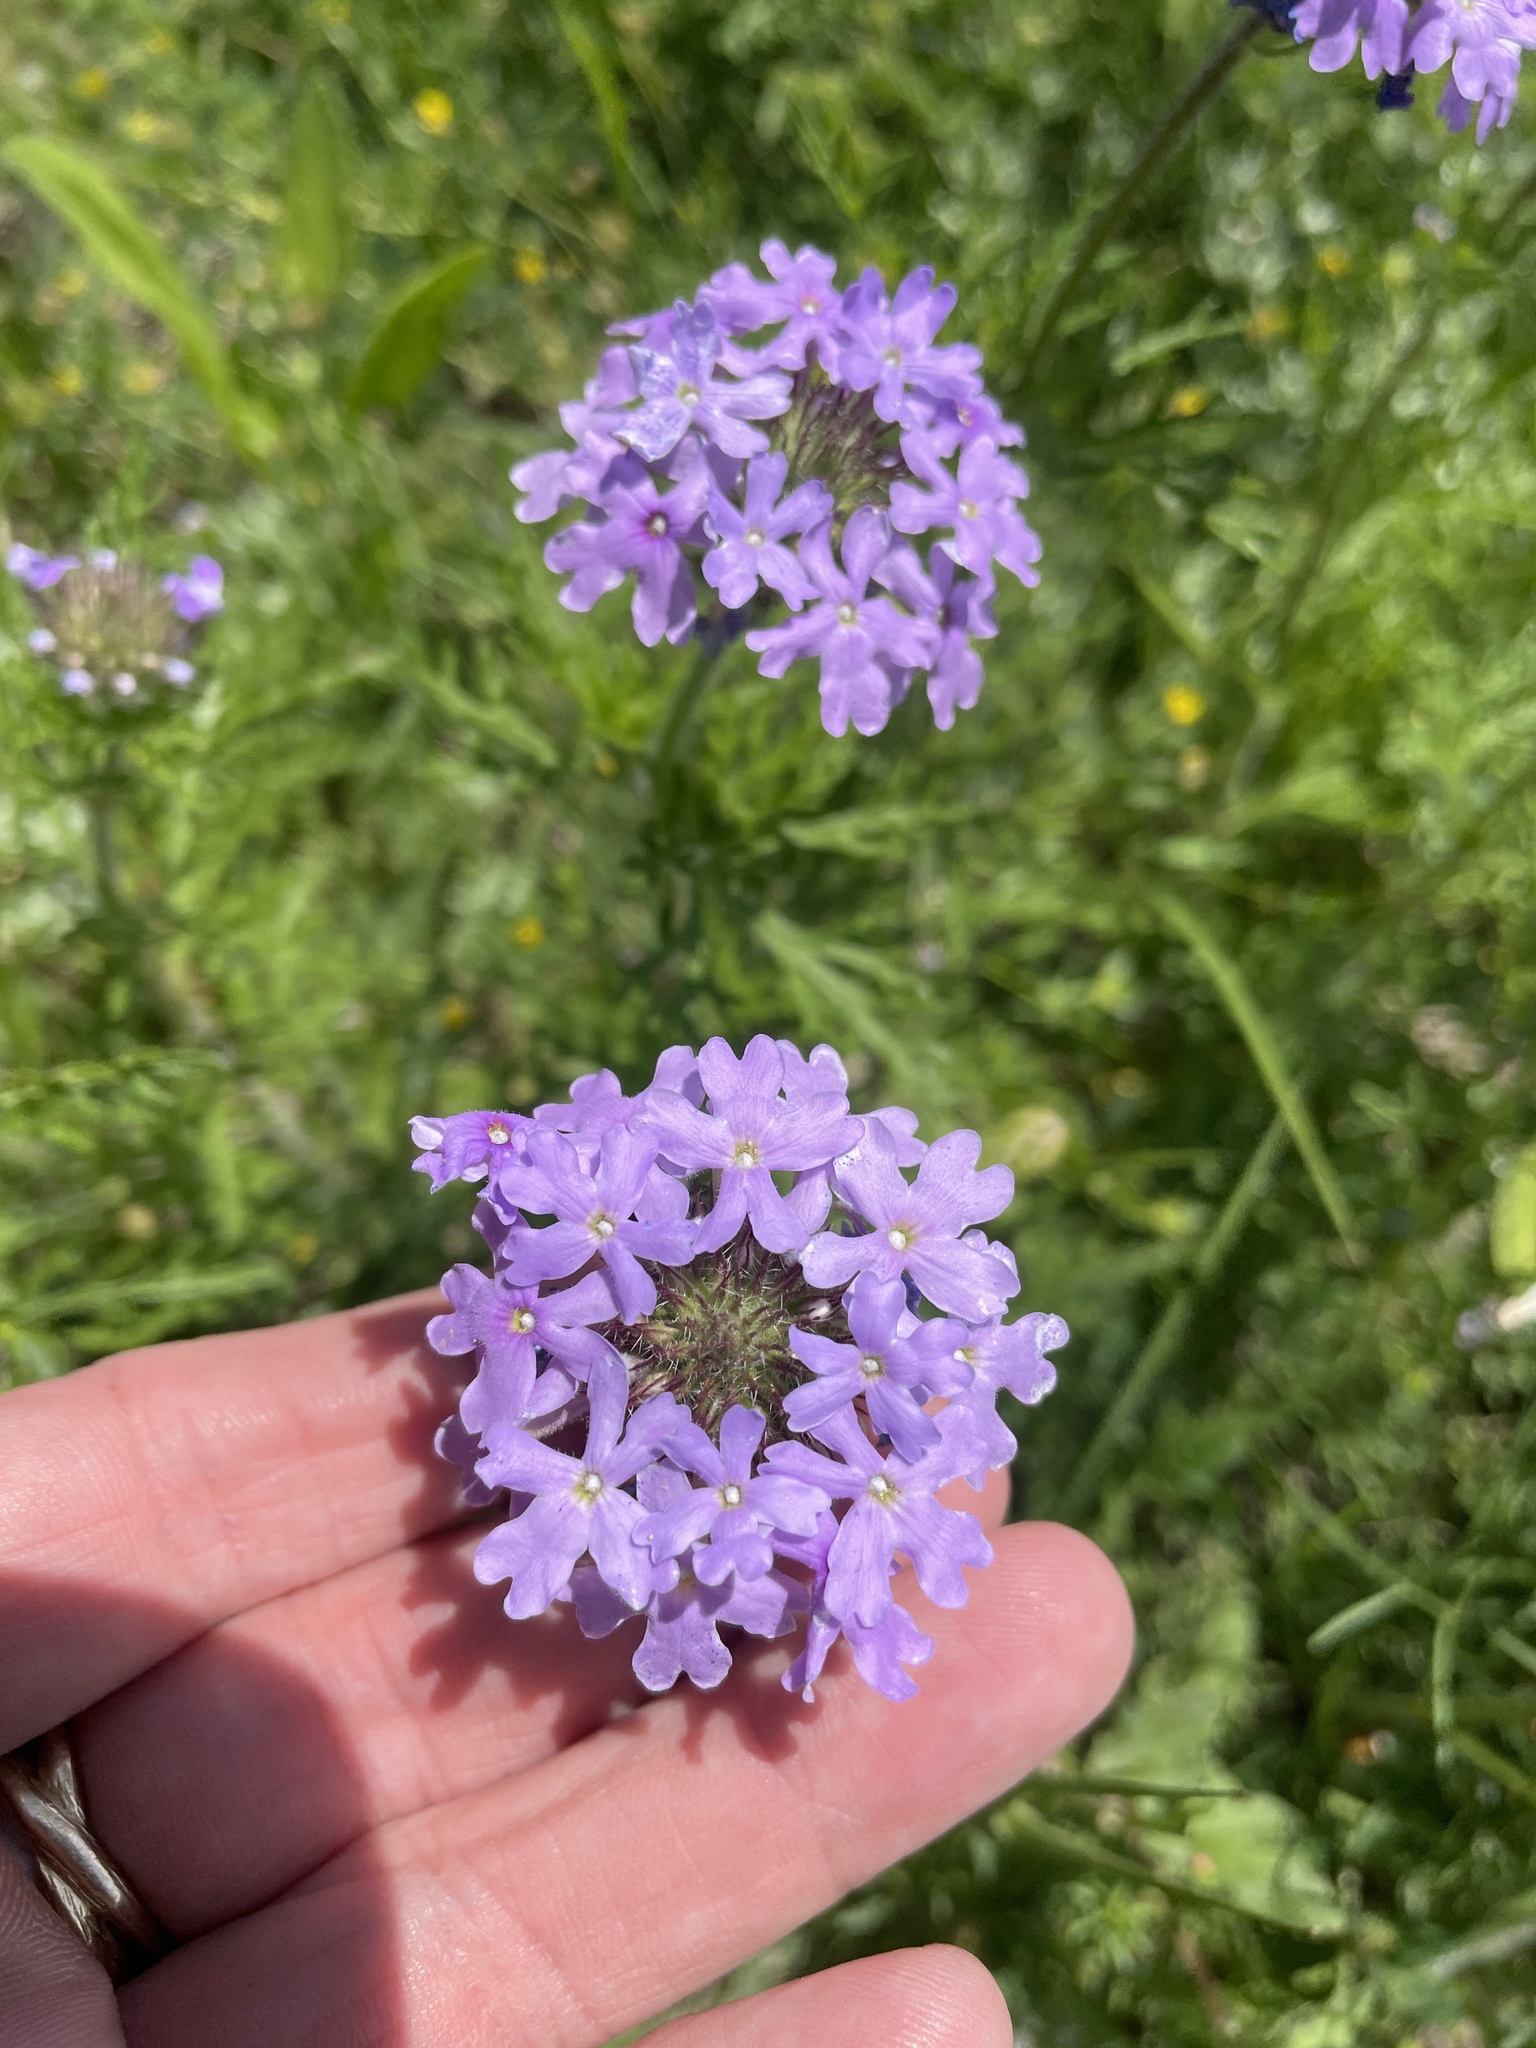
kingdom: Plantae
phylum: Tracheophyta
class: Magnoliopsida
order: Lamiales
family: Verbenaceae
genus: Verbena
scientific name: Verbena bipinnatifida
